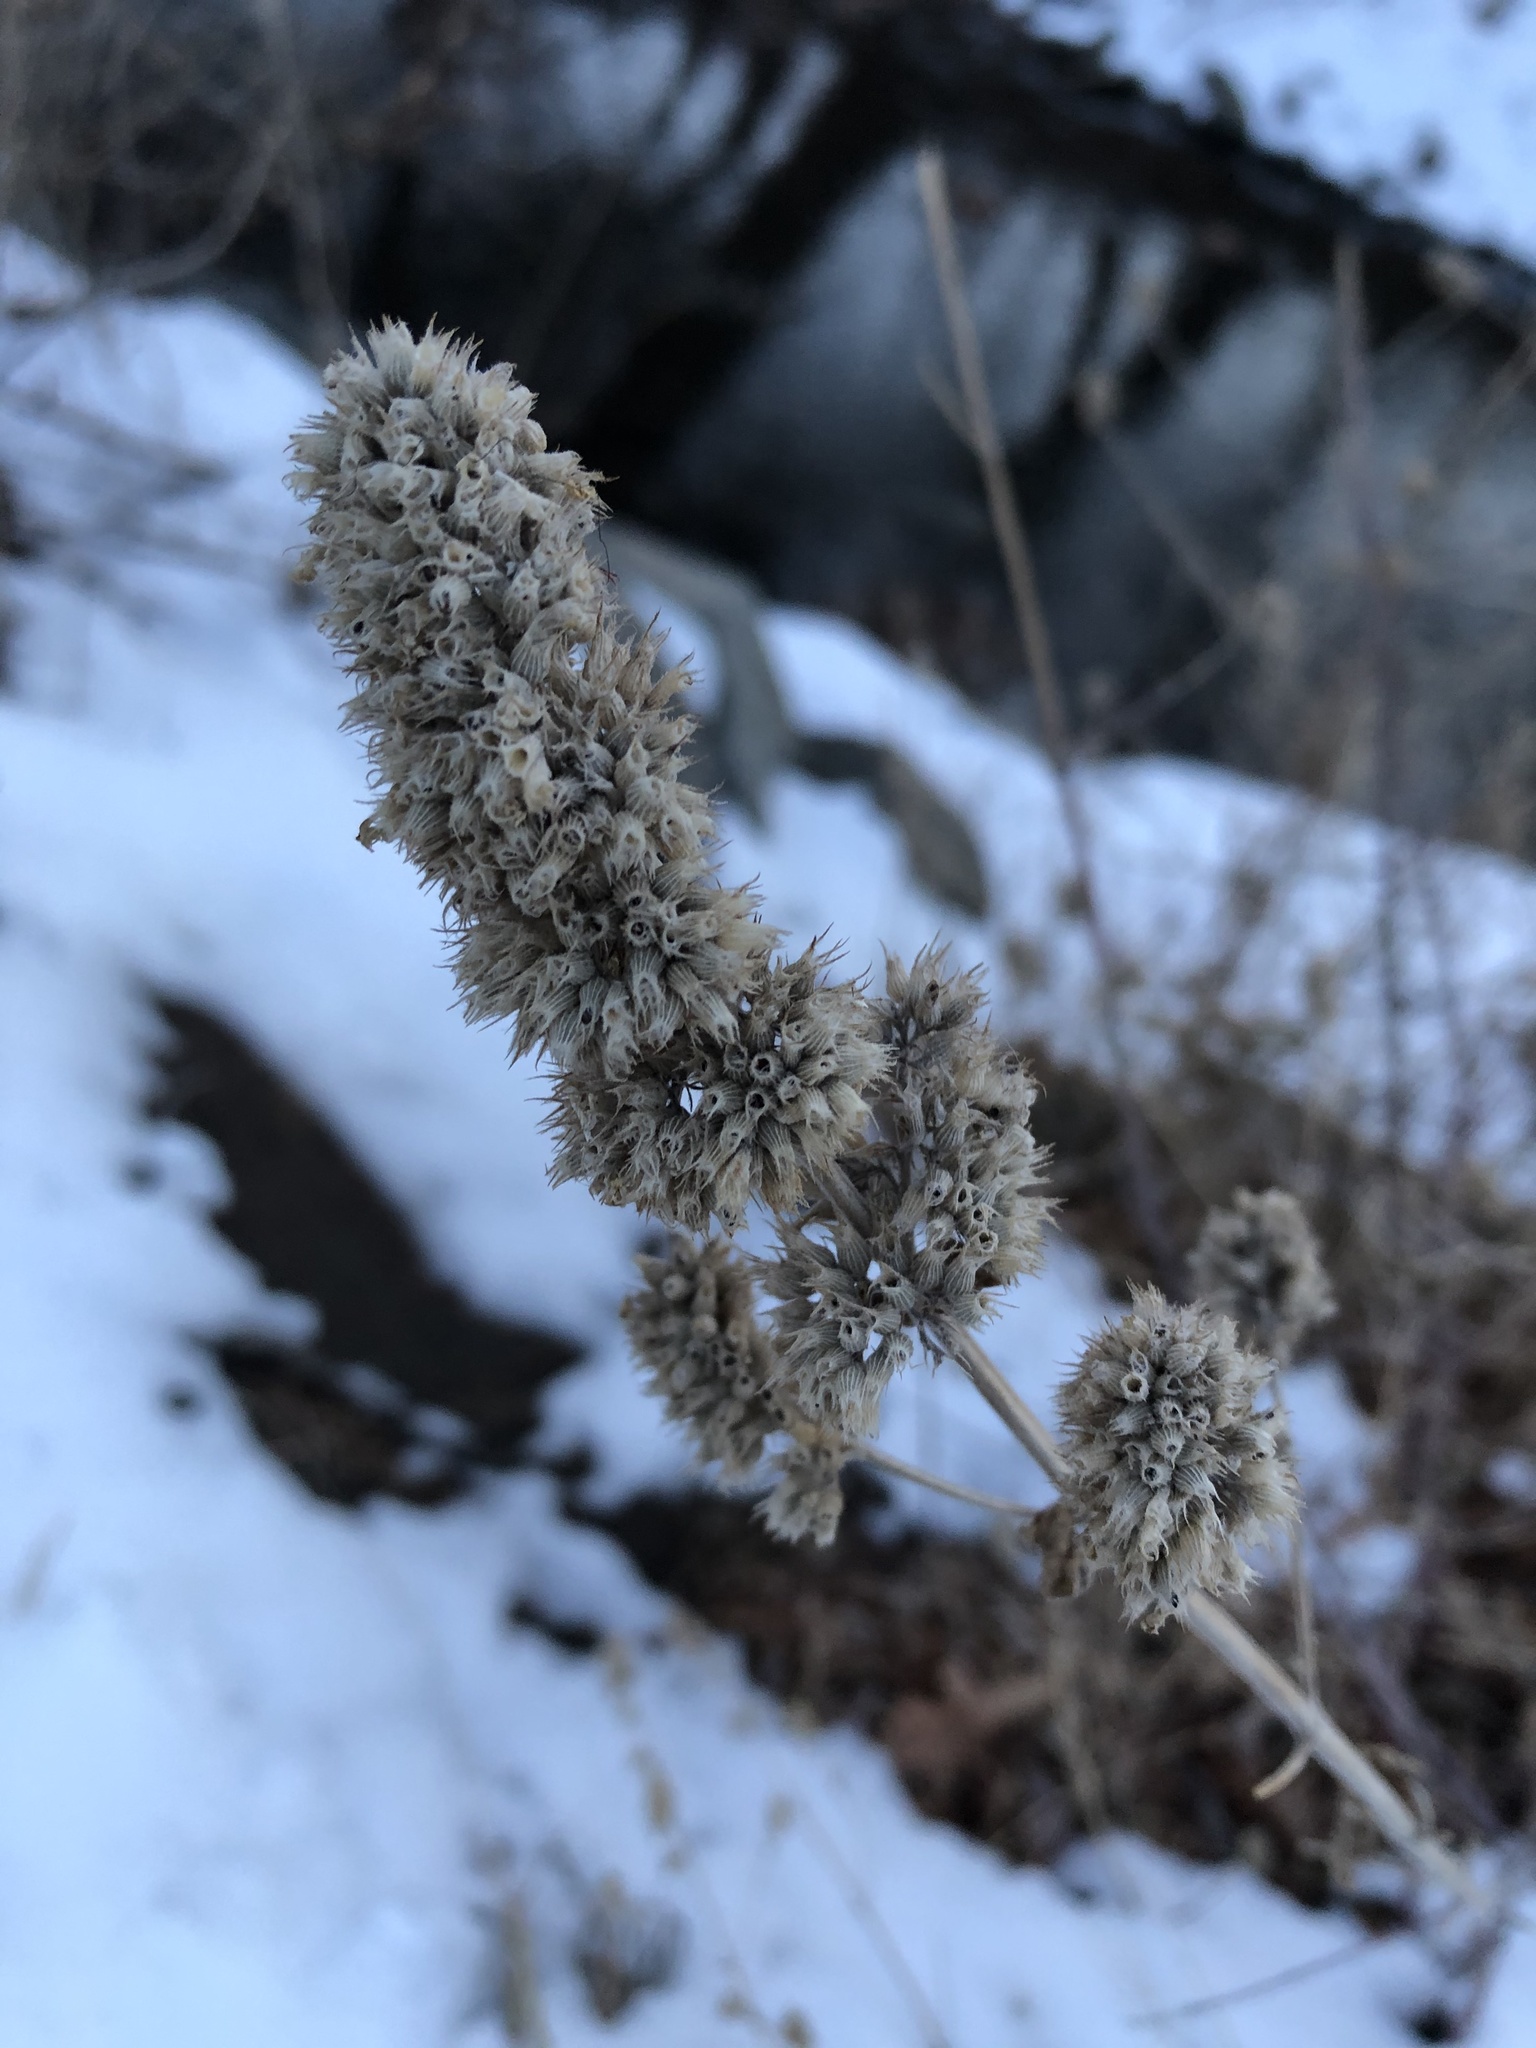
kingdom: Plantae
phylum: Tracheophyta
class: Magnoliopsida
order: Lamiales
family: Lamiaceae
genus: Nepeta
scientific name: Nepeta cataria
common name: Catnip
